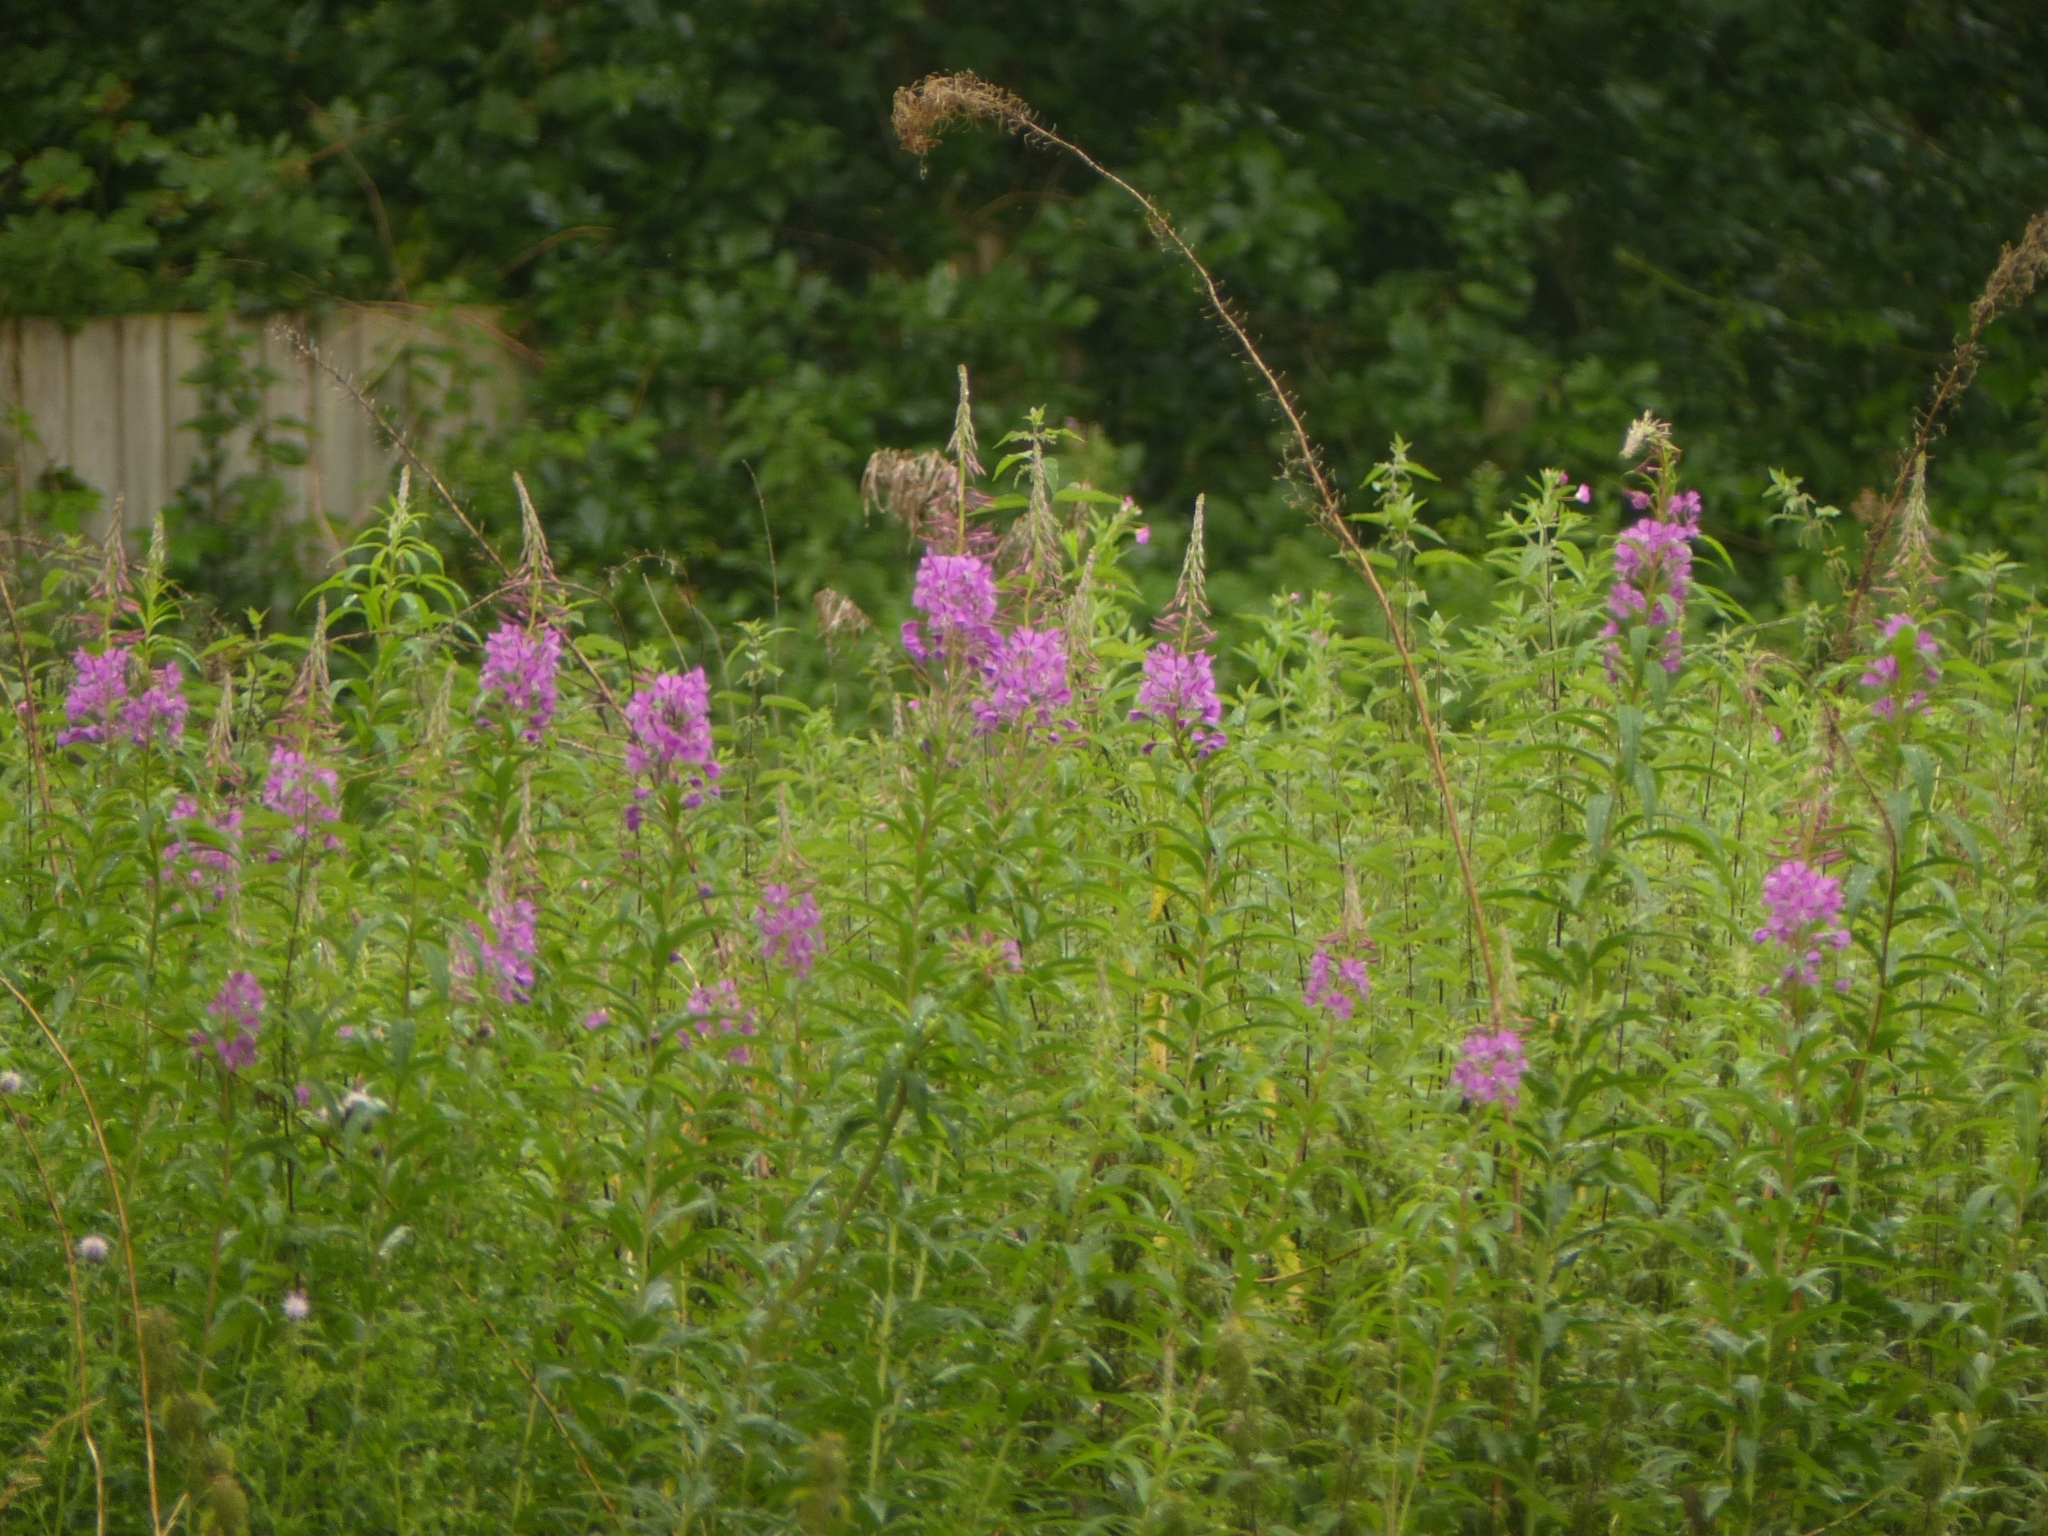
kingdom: Plantae
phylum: Tracheophyta
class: Magnoliopsida
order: Myrtales
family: Onagraceae
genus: Chamaenerion
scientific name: Chamaenerion angustifolium
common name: Fireweed
